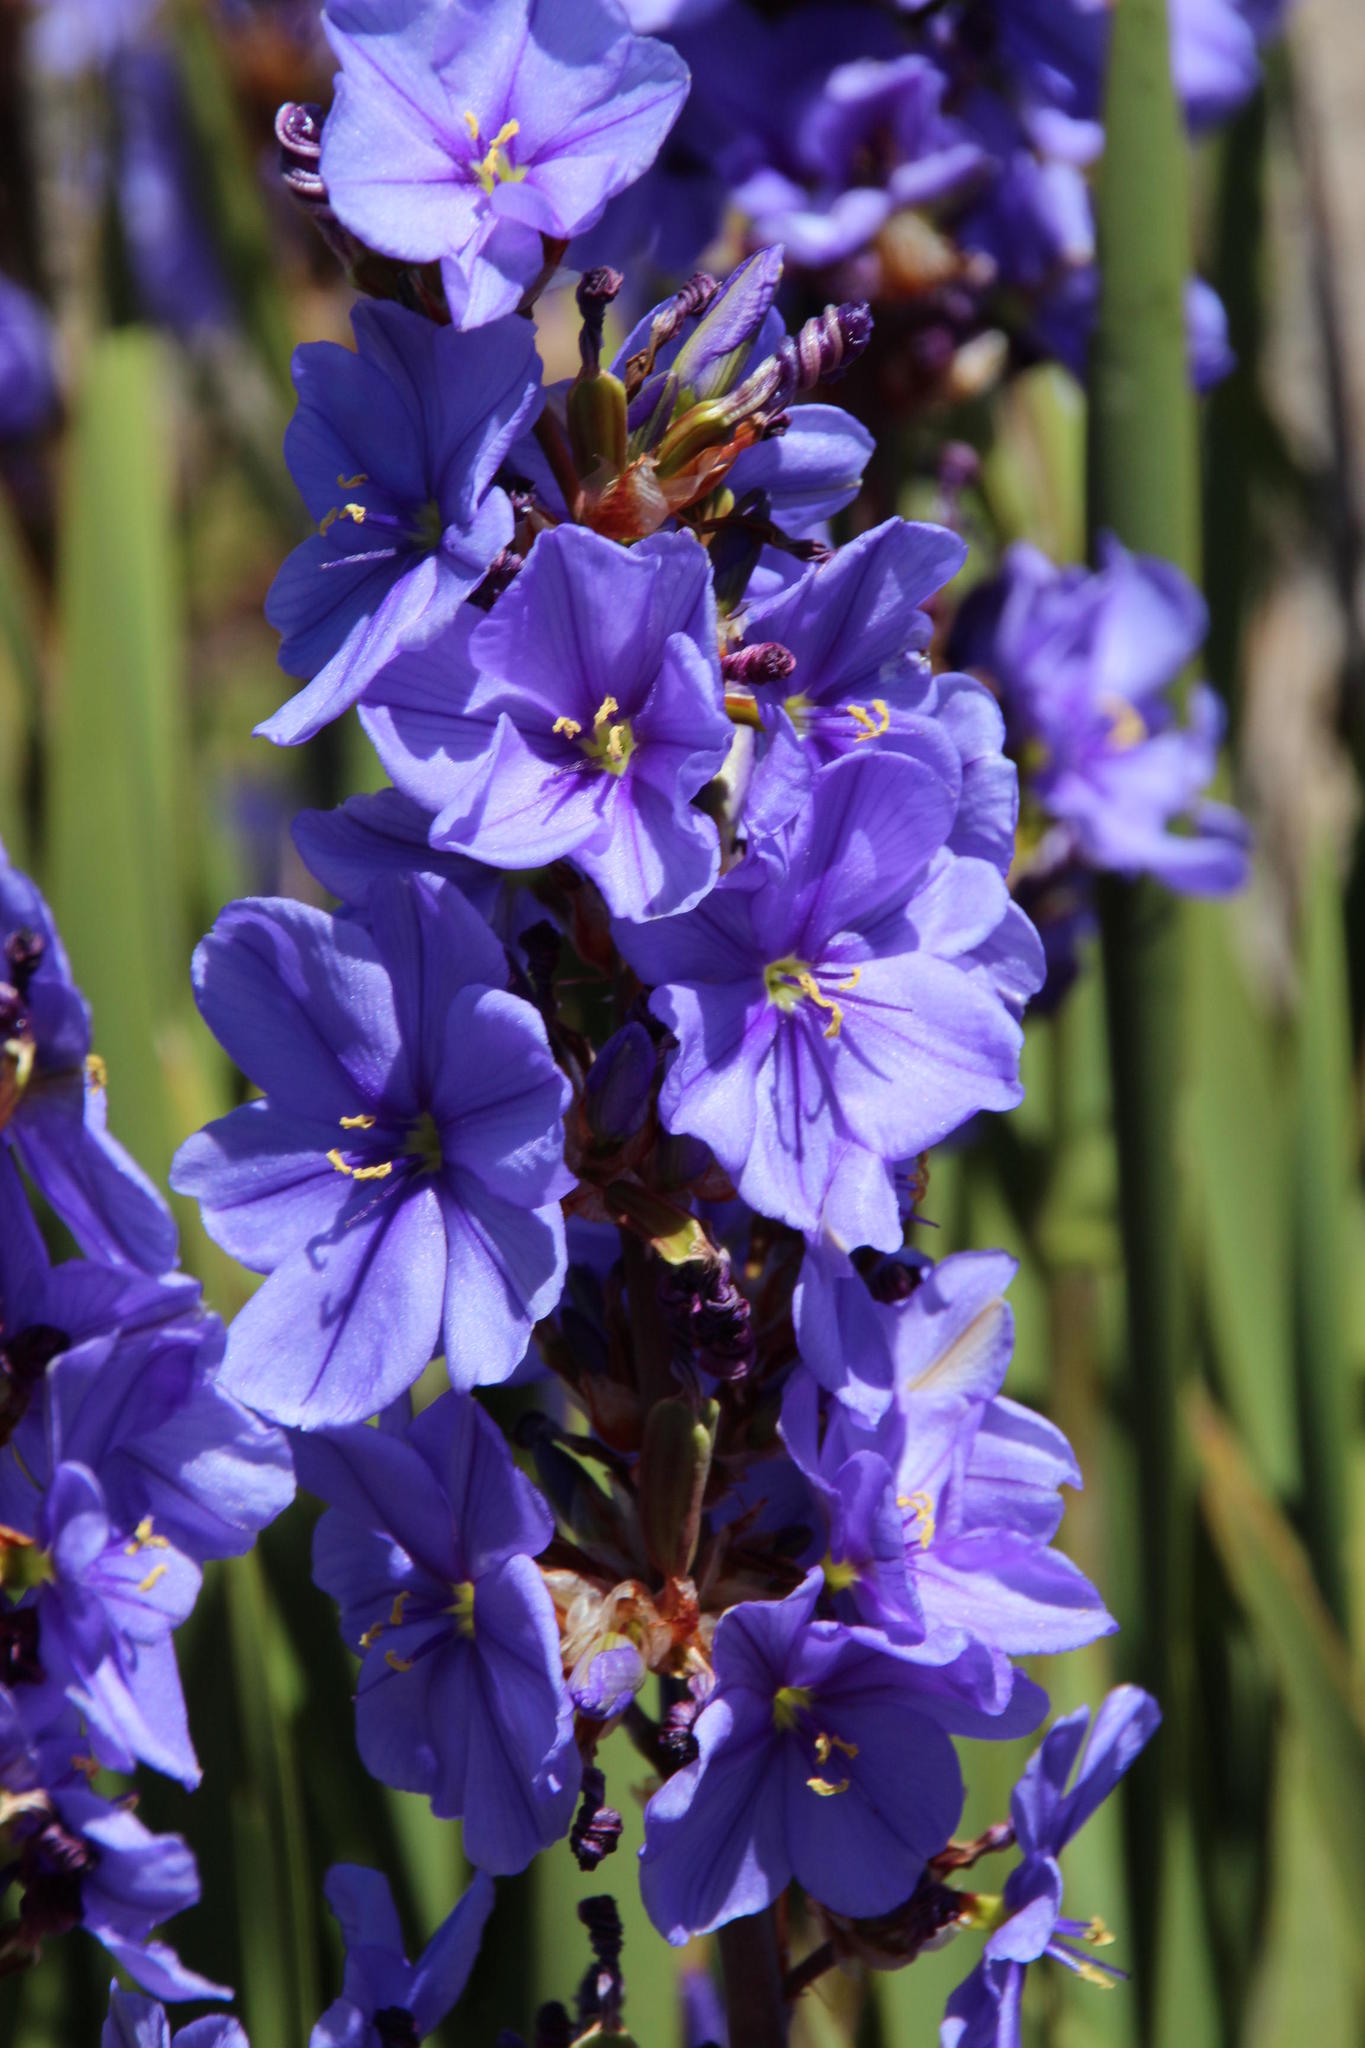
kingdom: Plantae
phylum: Tracheophyta
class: Liliopsida
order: Asparagales
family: Iridaceae
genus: Aristea
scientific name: Aristea capitata
